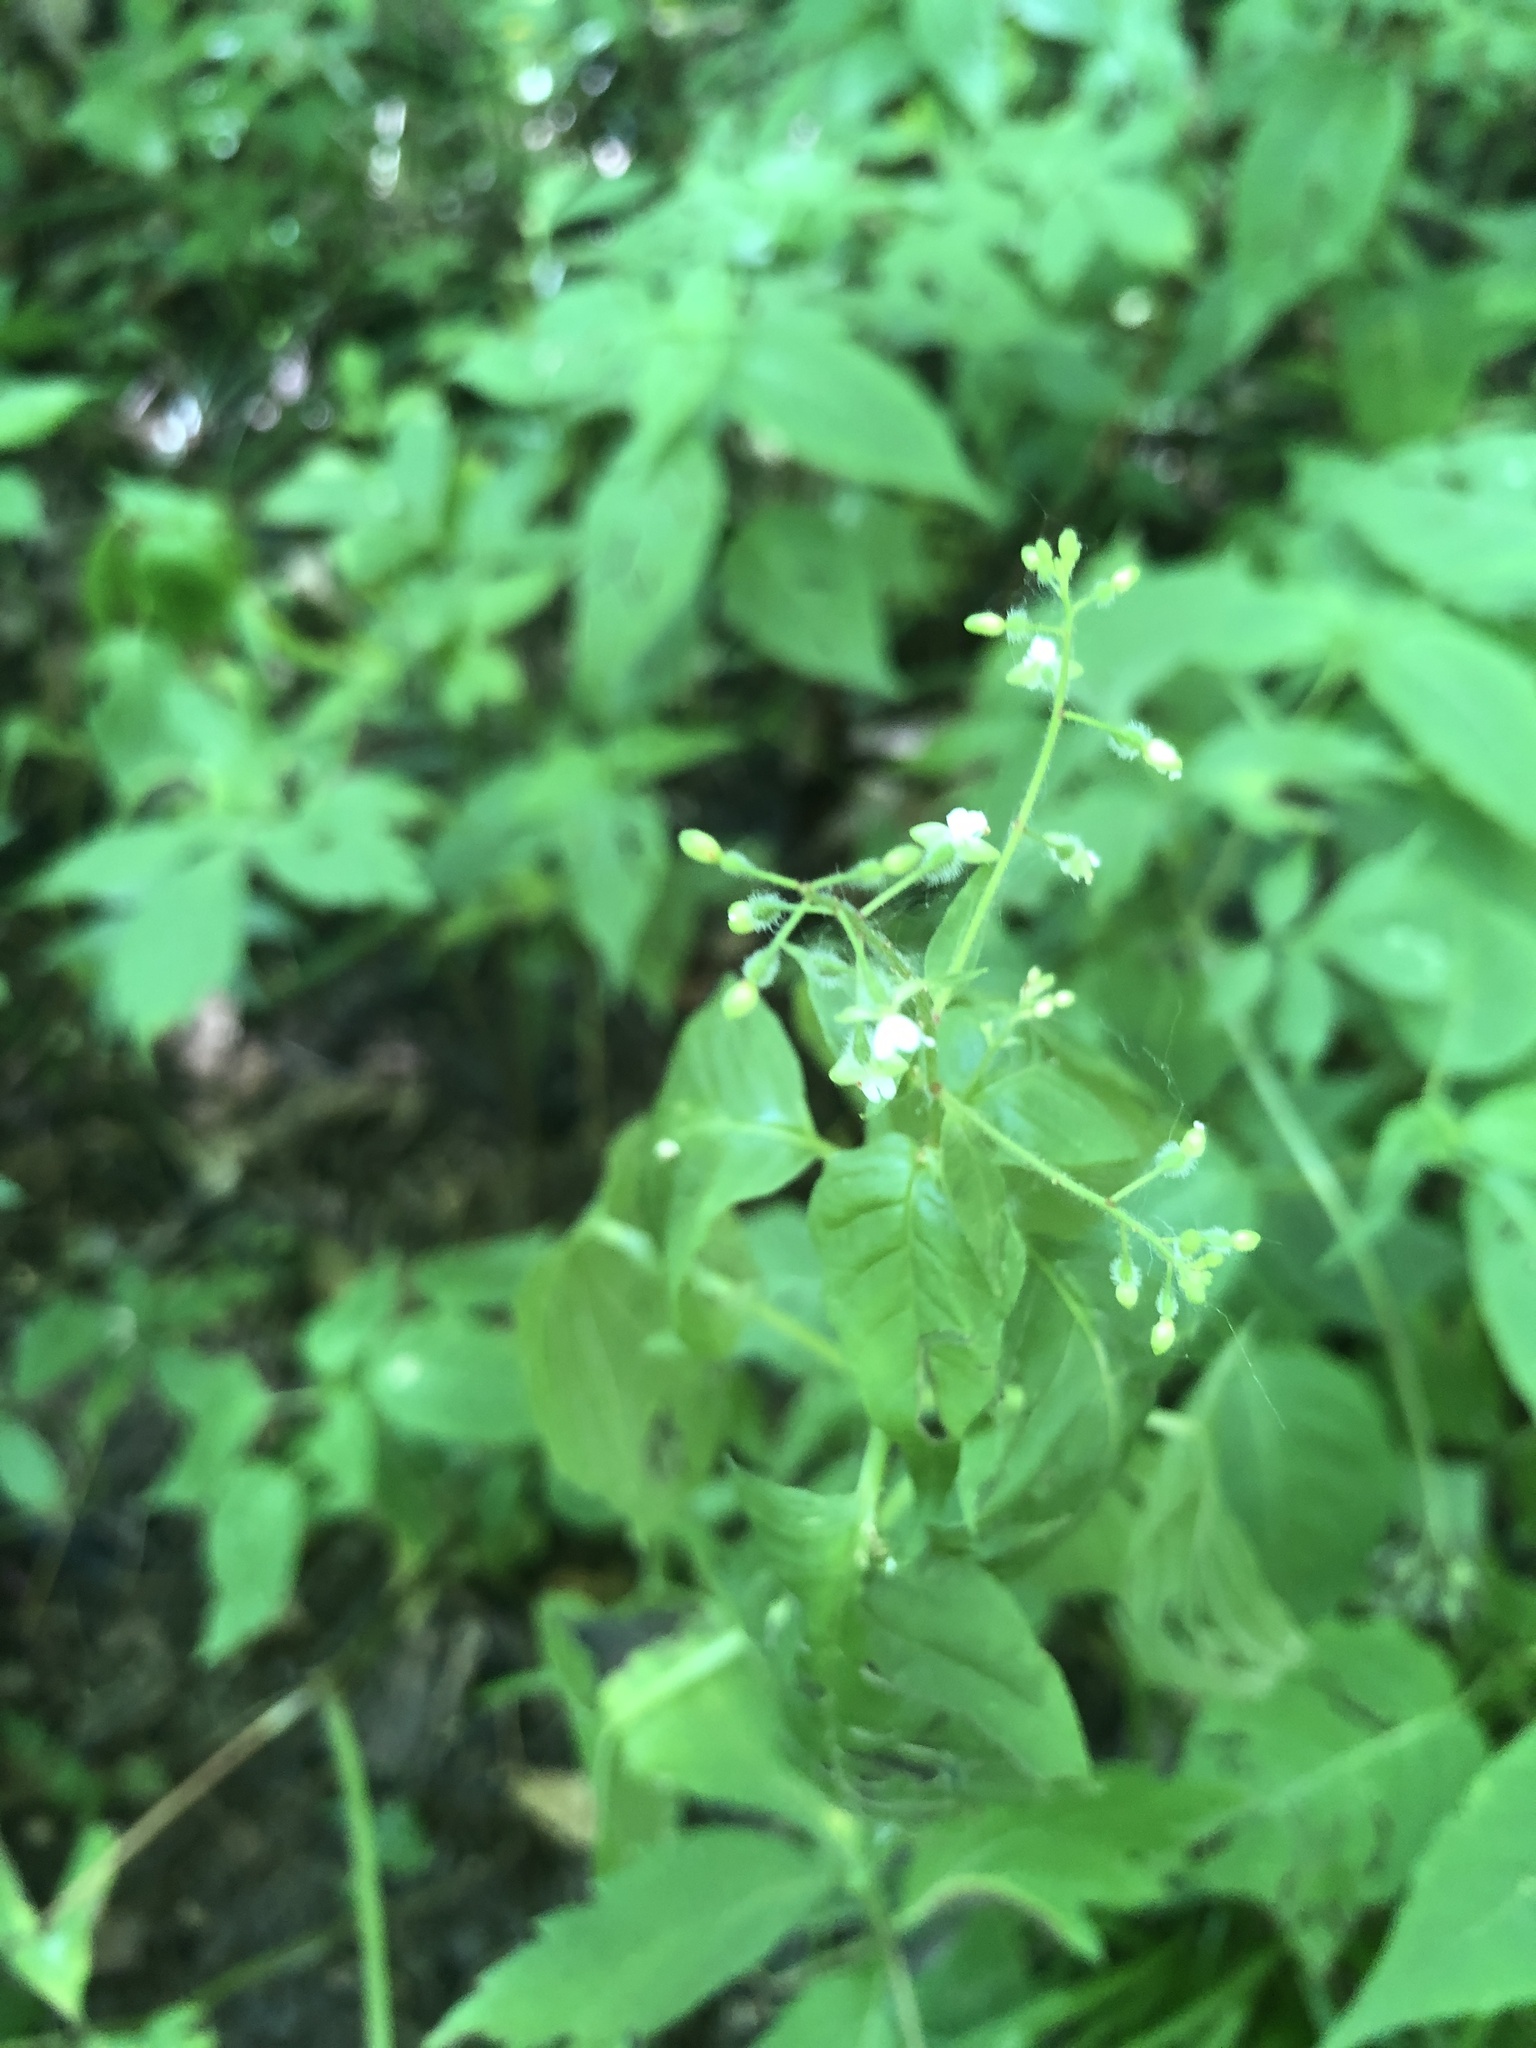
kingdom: Plantae
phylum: Tracheophyta
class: Magnoliopsida
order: Myrtales
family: Onagraceae
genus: Circaea
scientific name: Circaea canadensis
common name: Broad-leaved enchanter's nightshade
